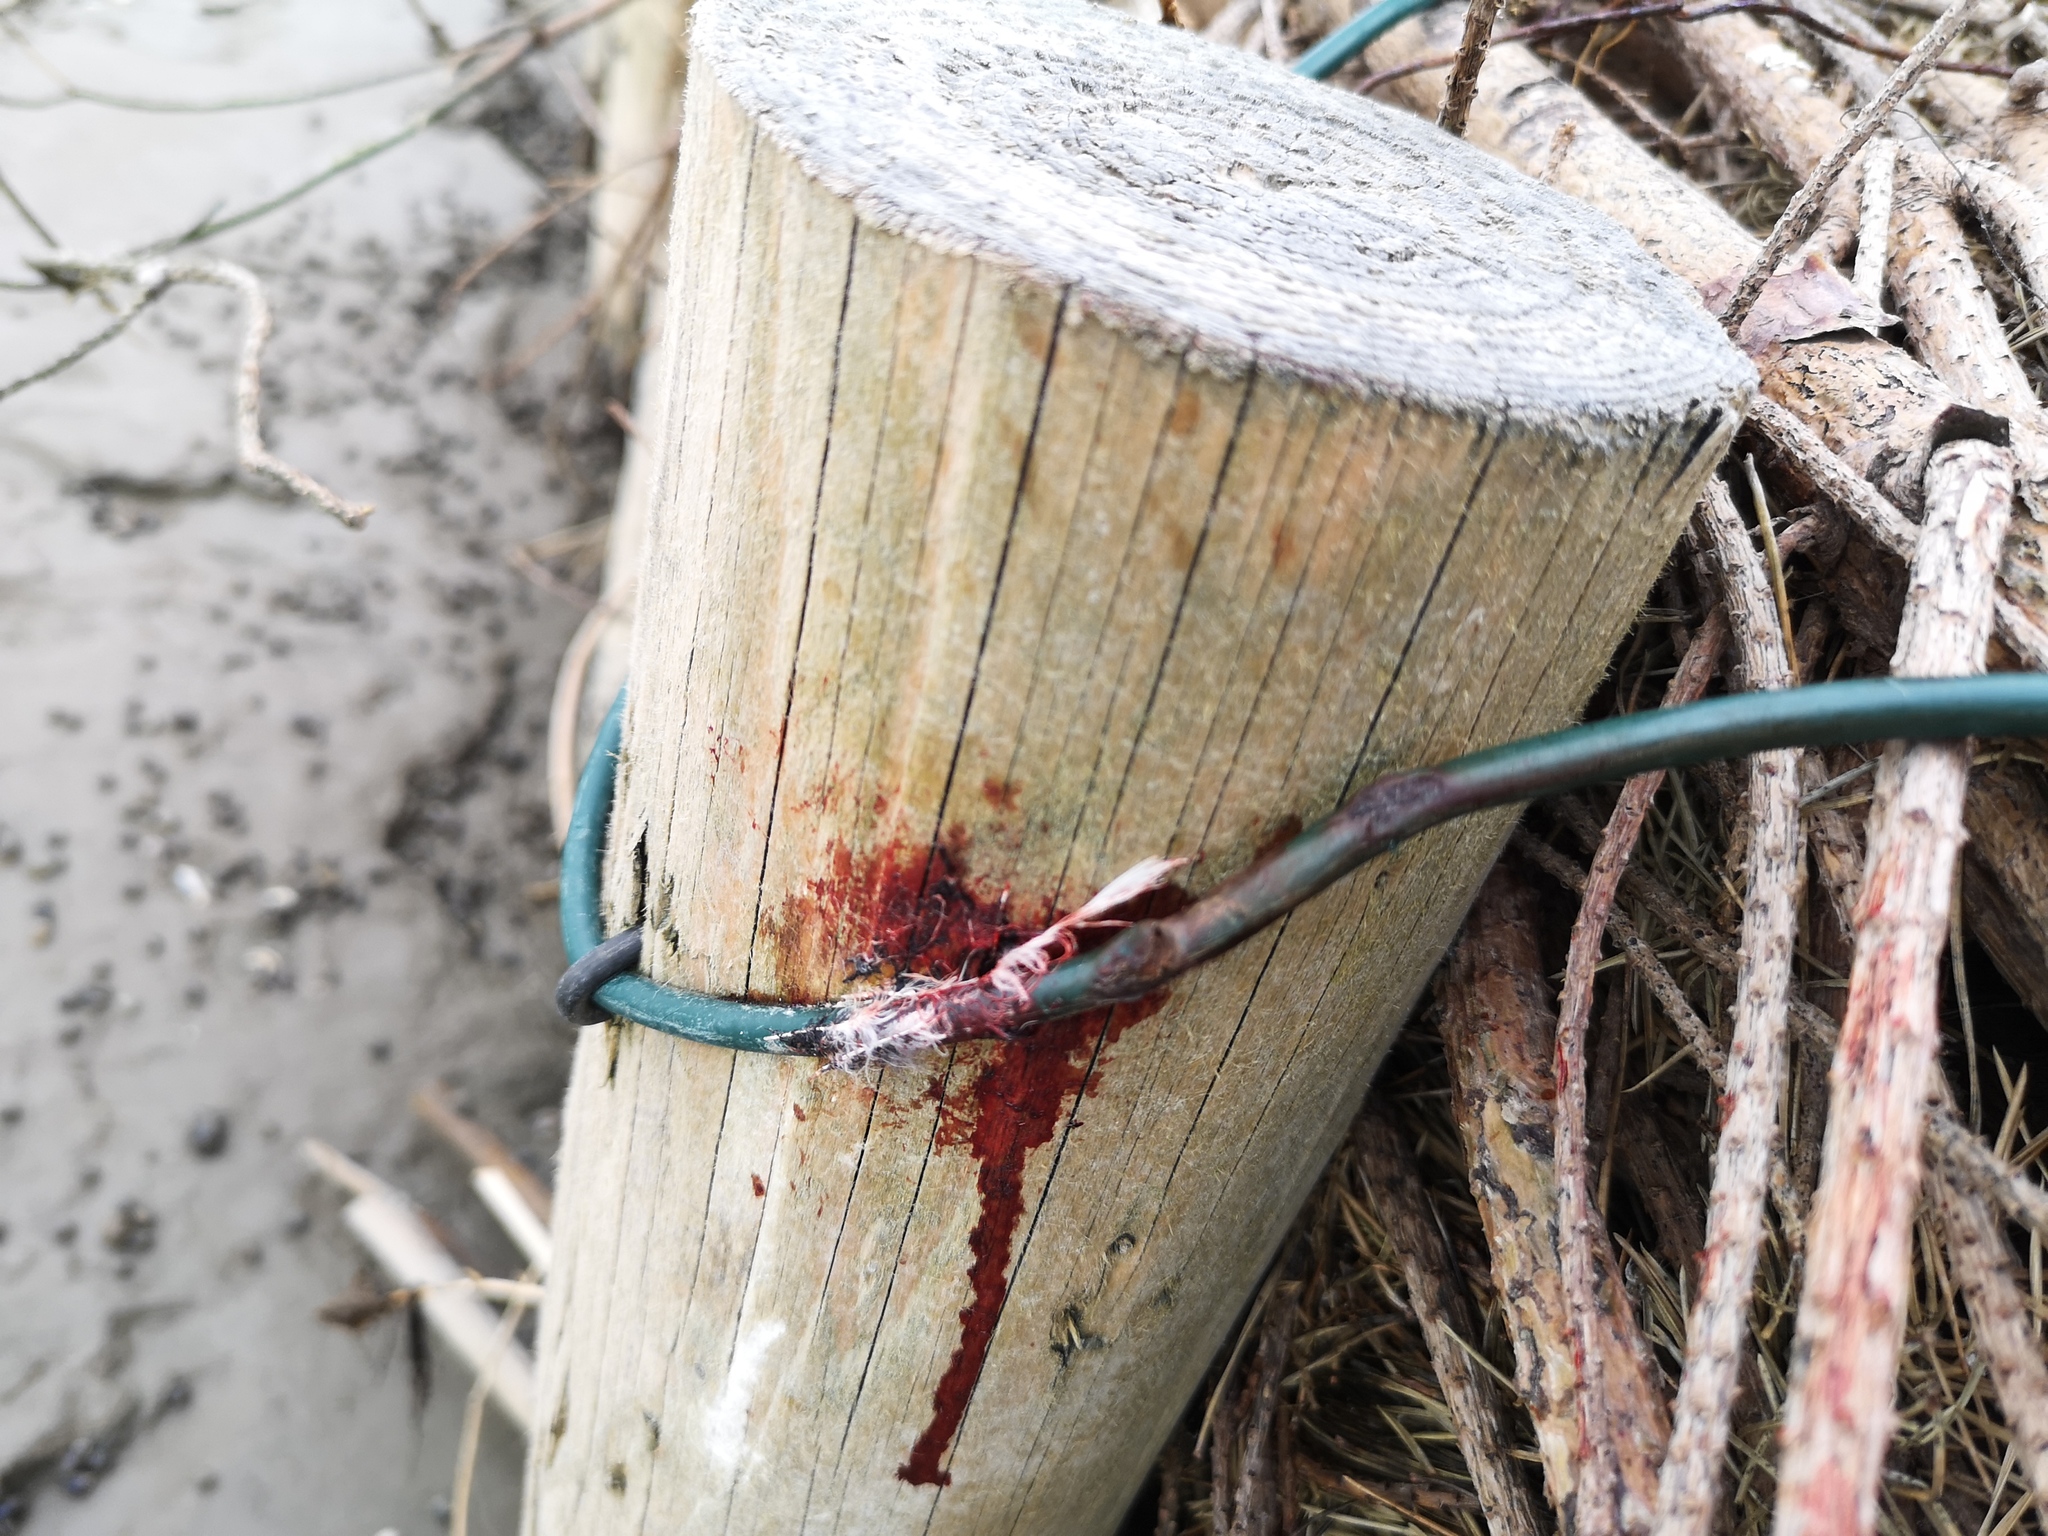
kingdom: Animalia
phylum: Chordata
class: Aves
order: Charadriiformes
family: Scolopacidae
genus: Calidris
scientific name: Calidris alpina
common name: Dunlin
